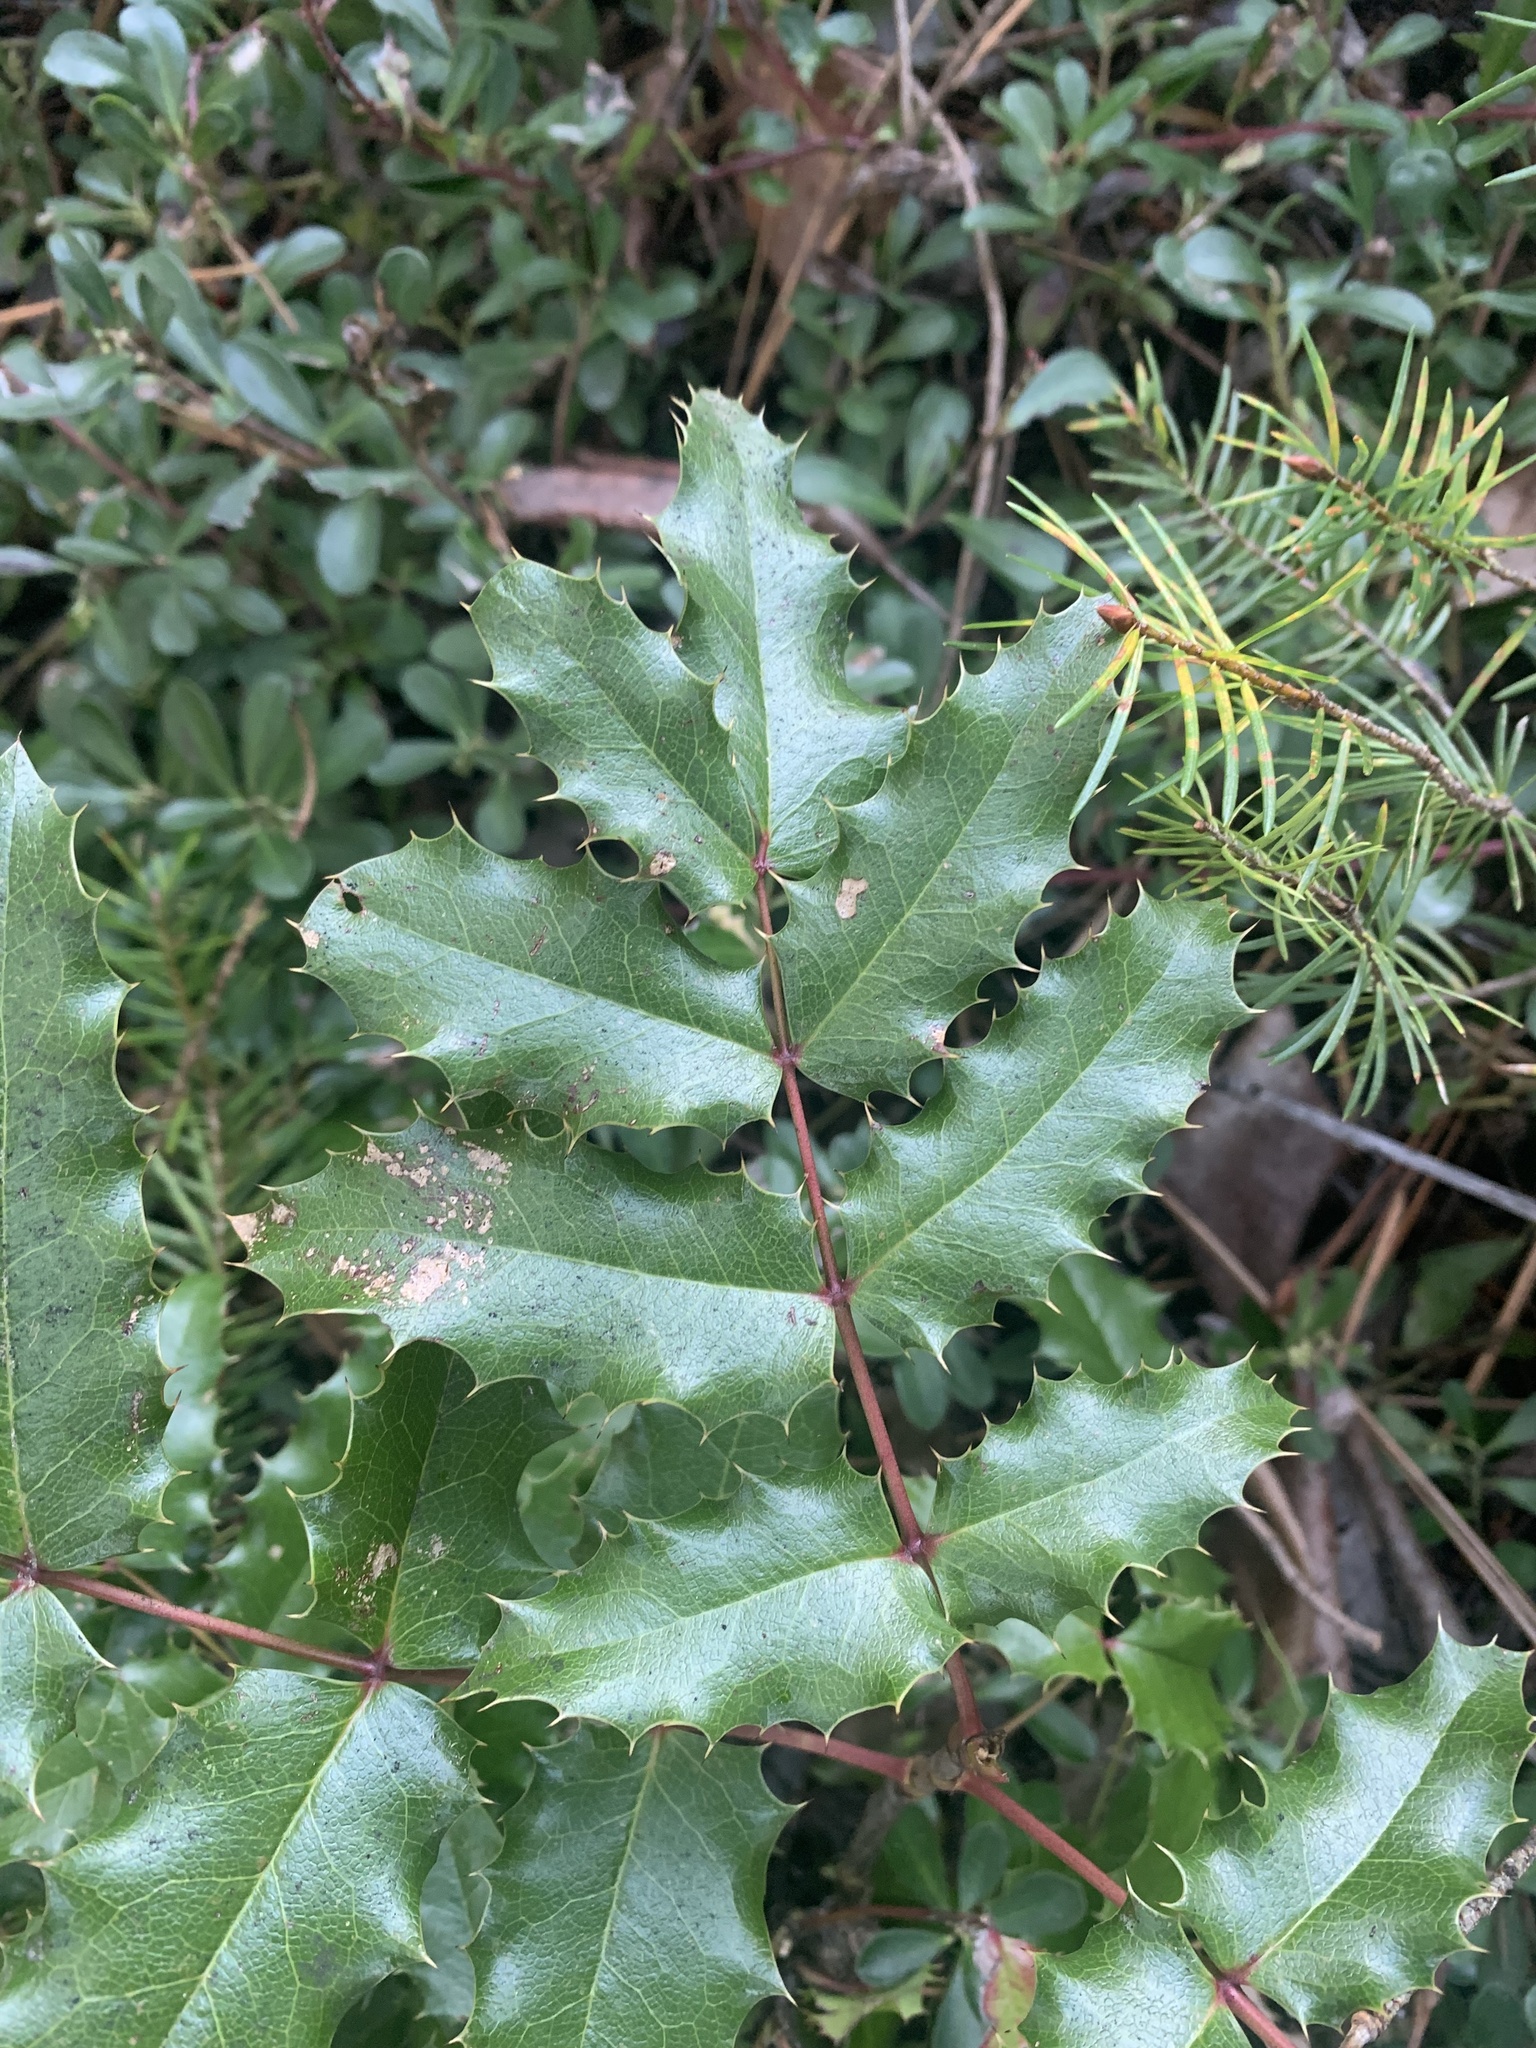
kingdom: Plantae
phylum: Tracheophyta
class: Magnoliopsida
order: Ranunculales
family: Berberidaceae
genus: Mahonia
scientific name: Mahonia aquifolium
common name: Oregon-grape
